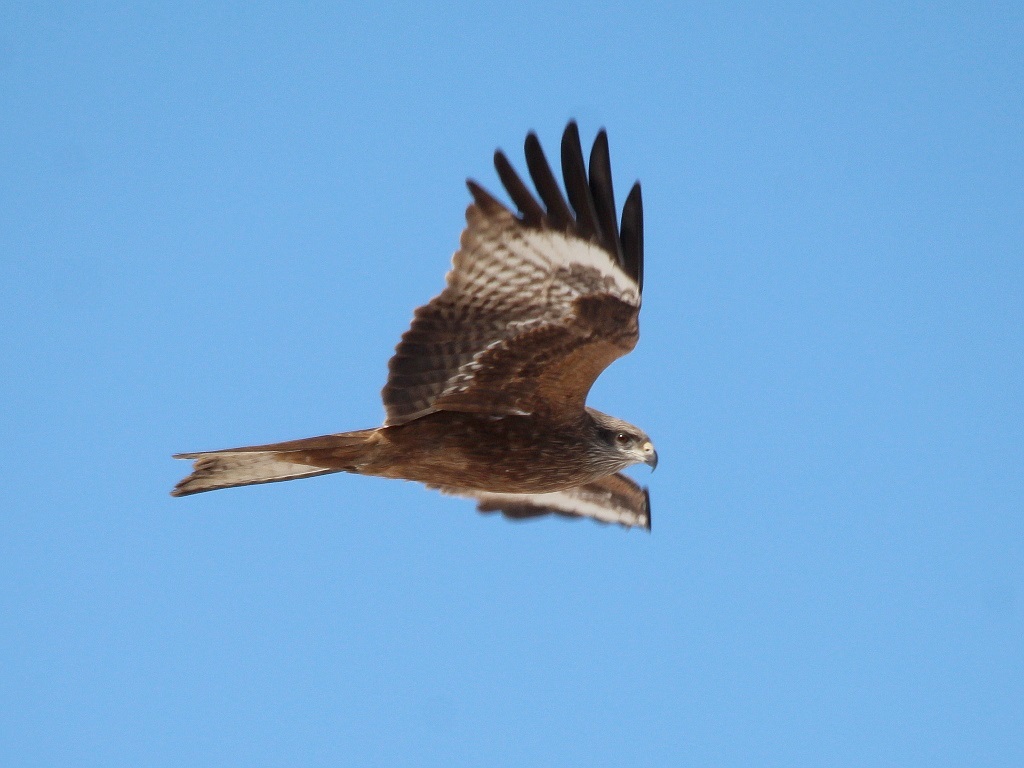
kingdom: Animalia
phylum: Chordata
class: Aves
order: Accipitriformes
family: Accipitridae
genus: Milvus
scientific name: Milvus migrans
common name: Black kite
